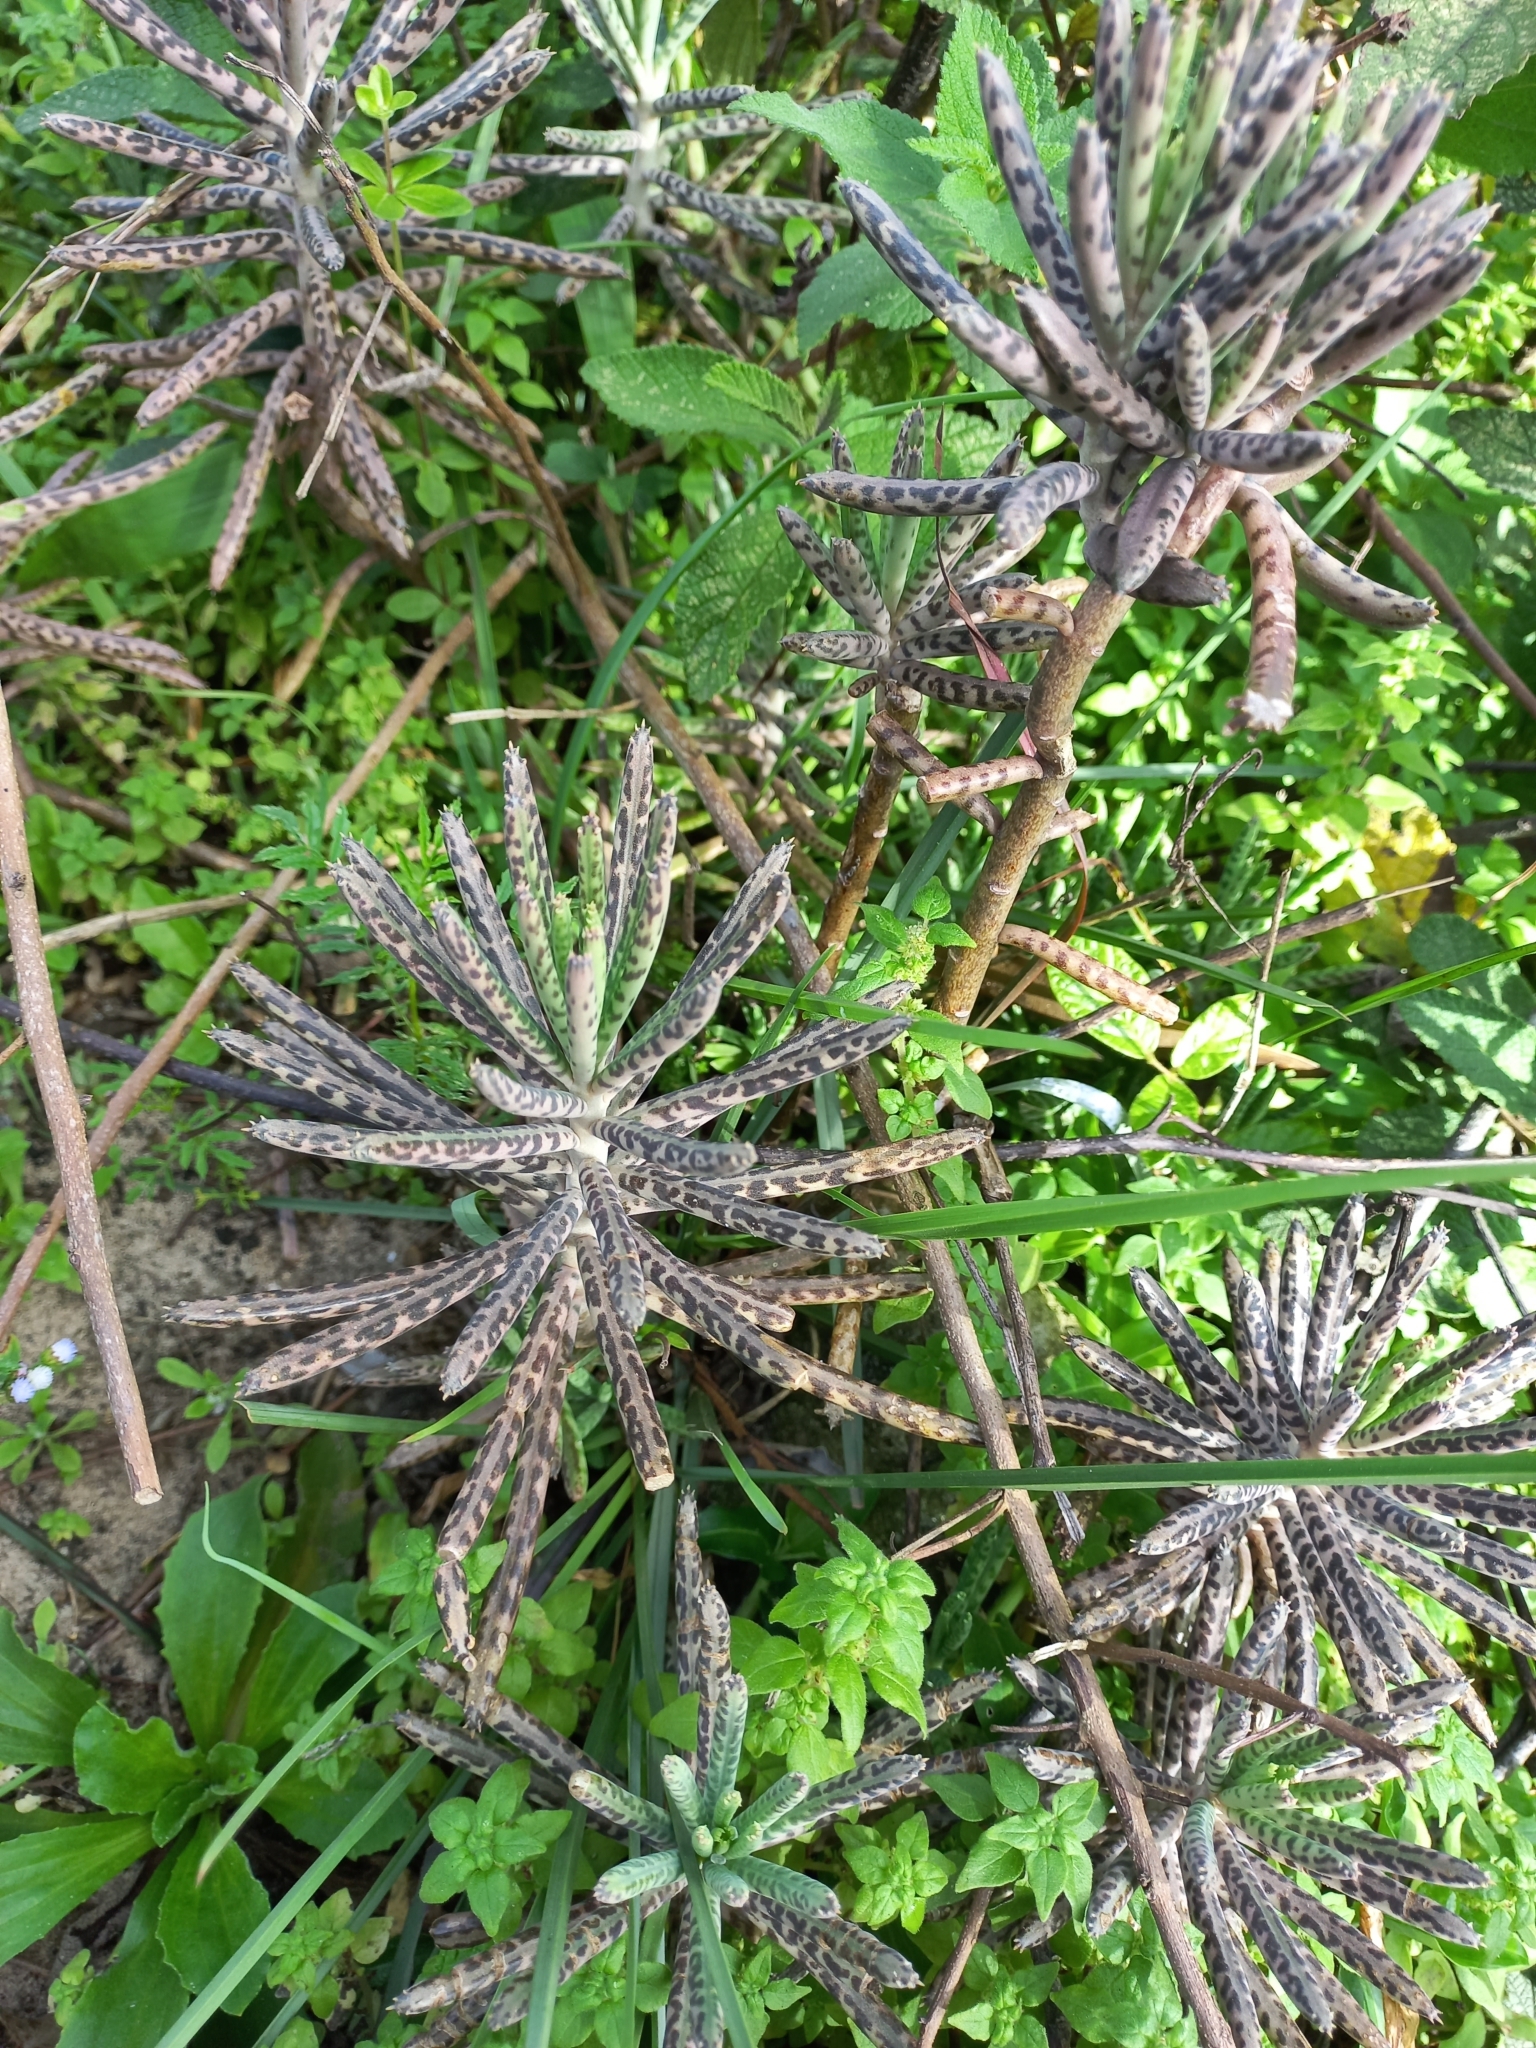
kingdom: Plantae
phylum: Tracheophyta
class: Magnoliopsida
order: Saxifragales
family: Crassulaceae
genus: Kalanchoe
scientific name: Kalanchoe delagoensis
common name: Chandelier plant
